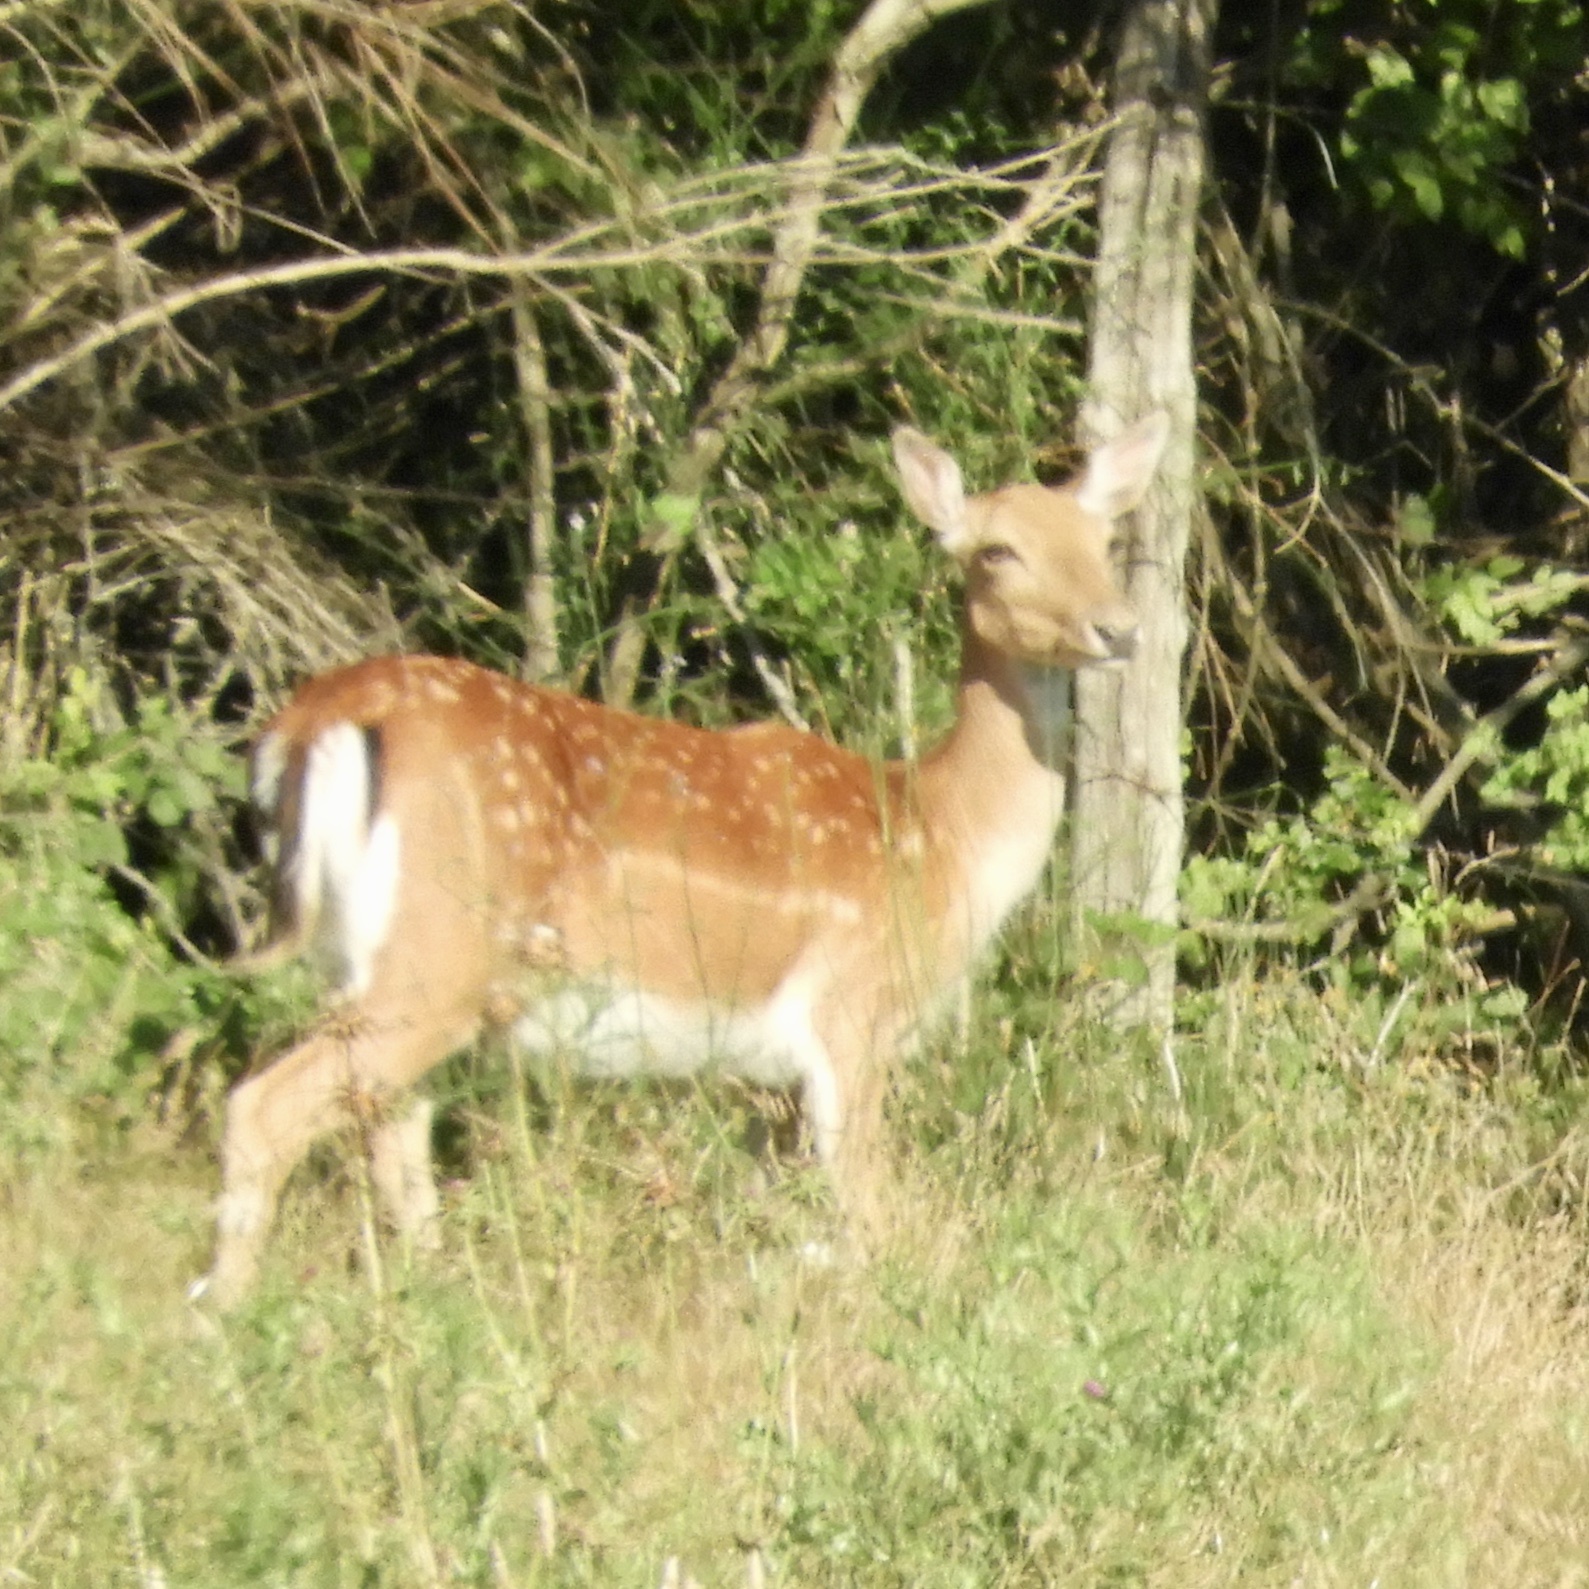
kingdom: Animalia
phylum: Chordata
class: Mammalia
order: Artiodactyla
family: Cervidae
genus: Dama
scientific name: Dama dama
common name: Fallow deer
